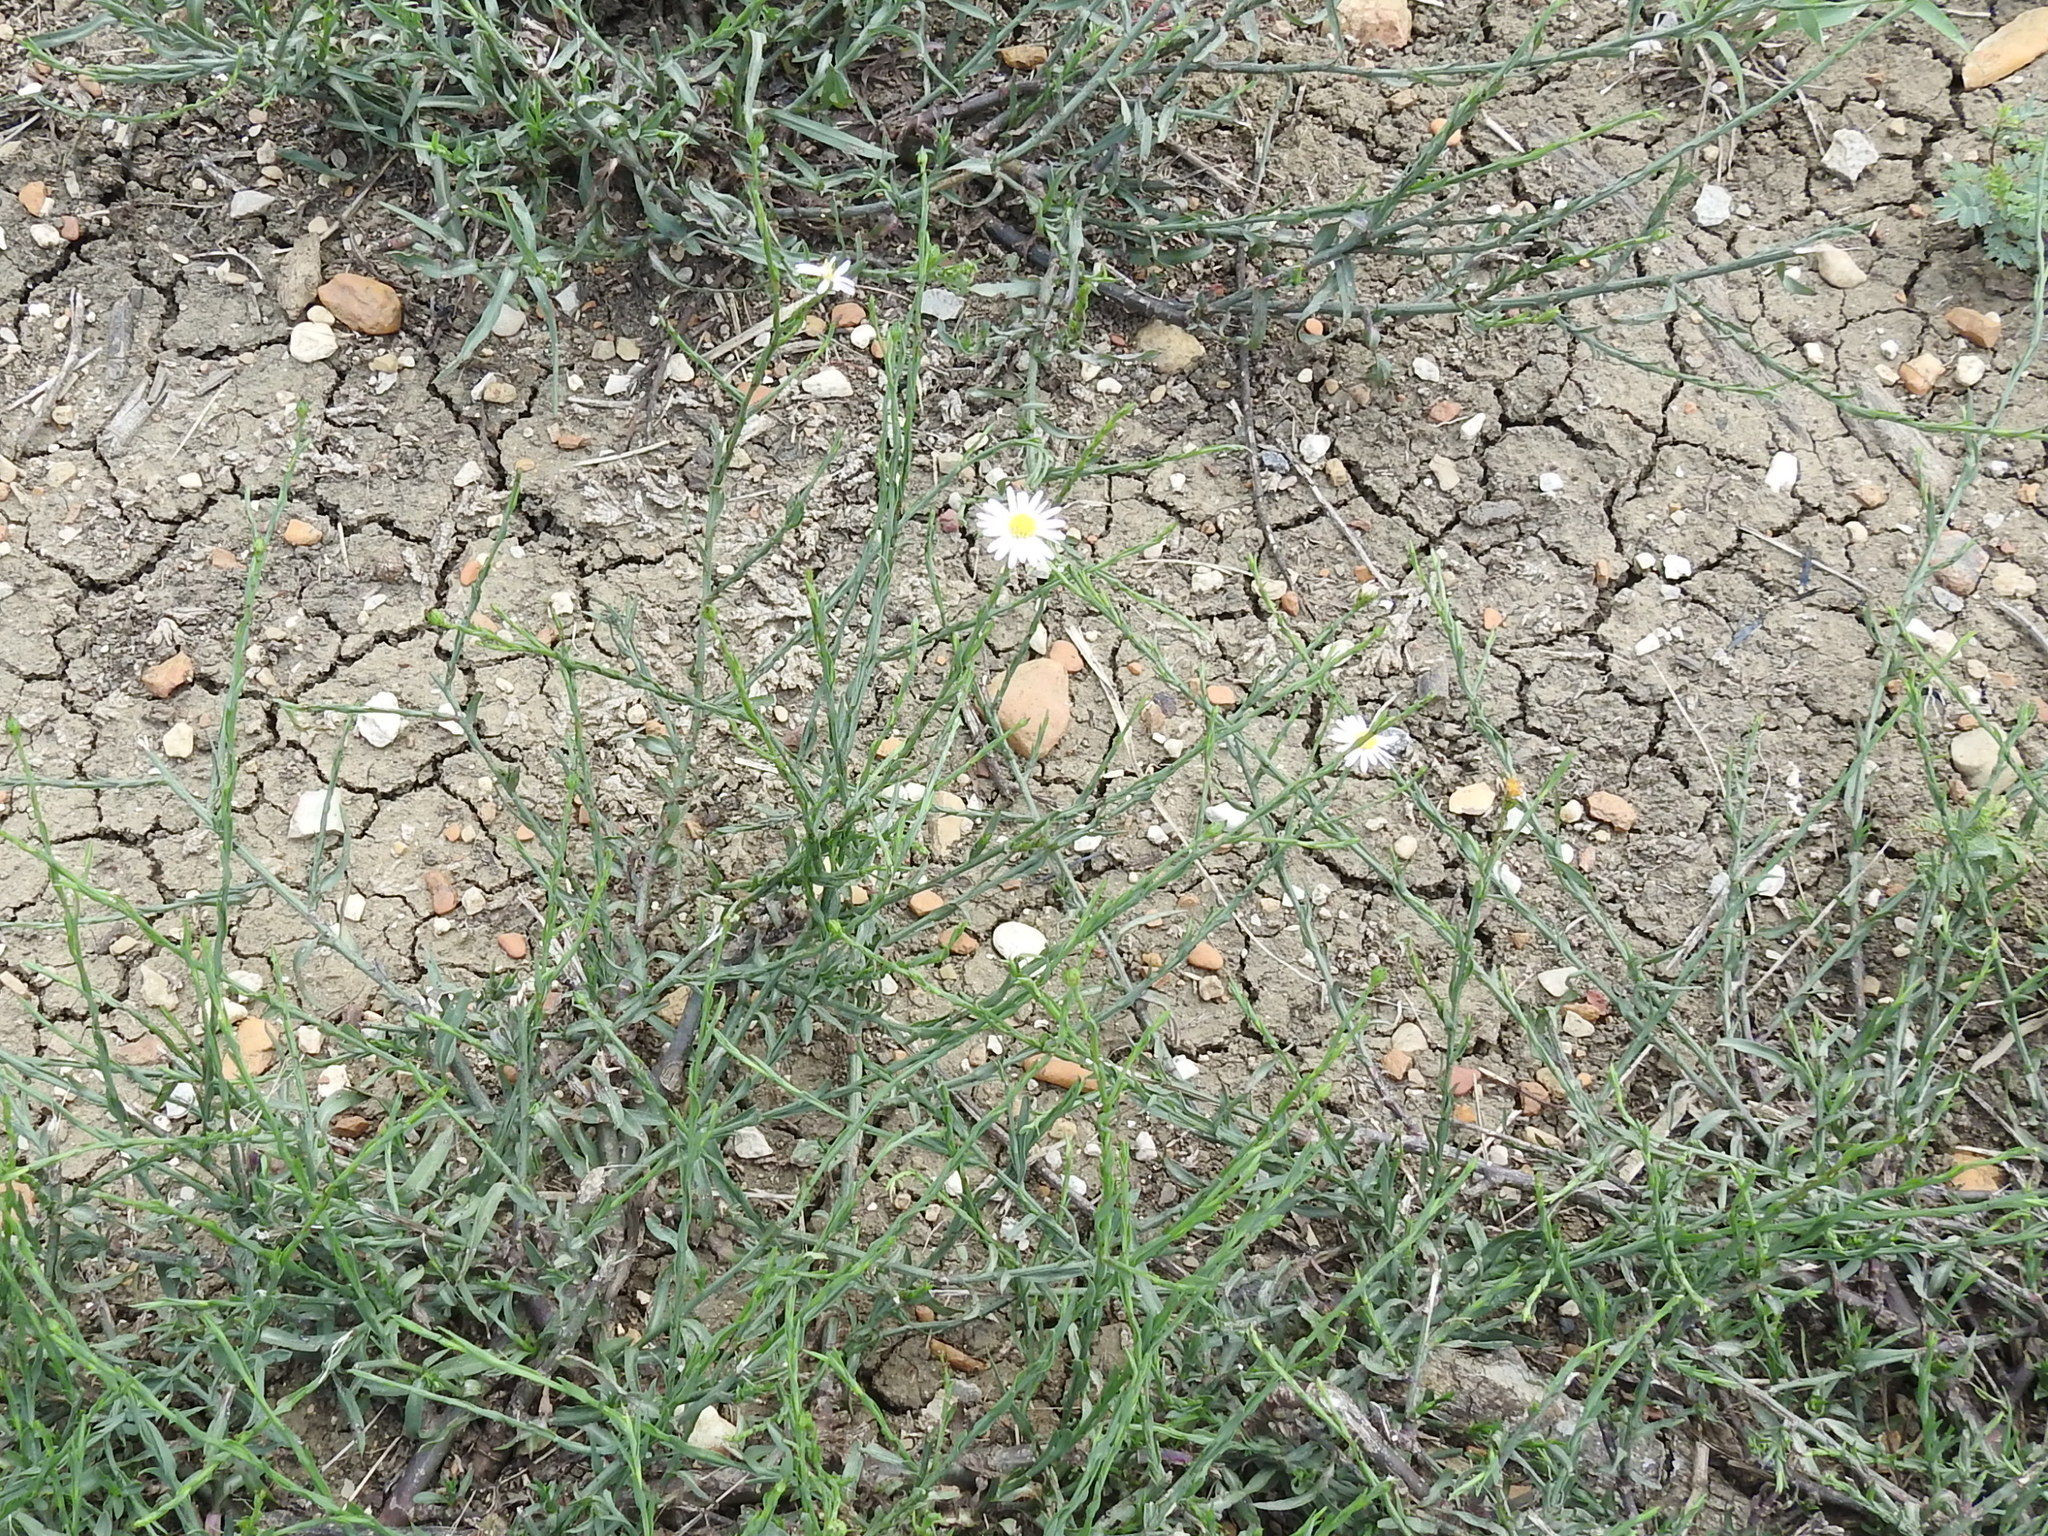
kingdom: Plantae
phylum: Tracheophyta
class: Magnoliopsida
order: Asterales
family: Asteraceae
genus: Symphyotrichum
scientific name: Symphyotrichum divaricatum
